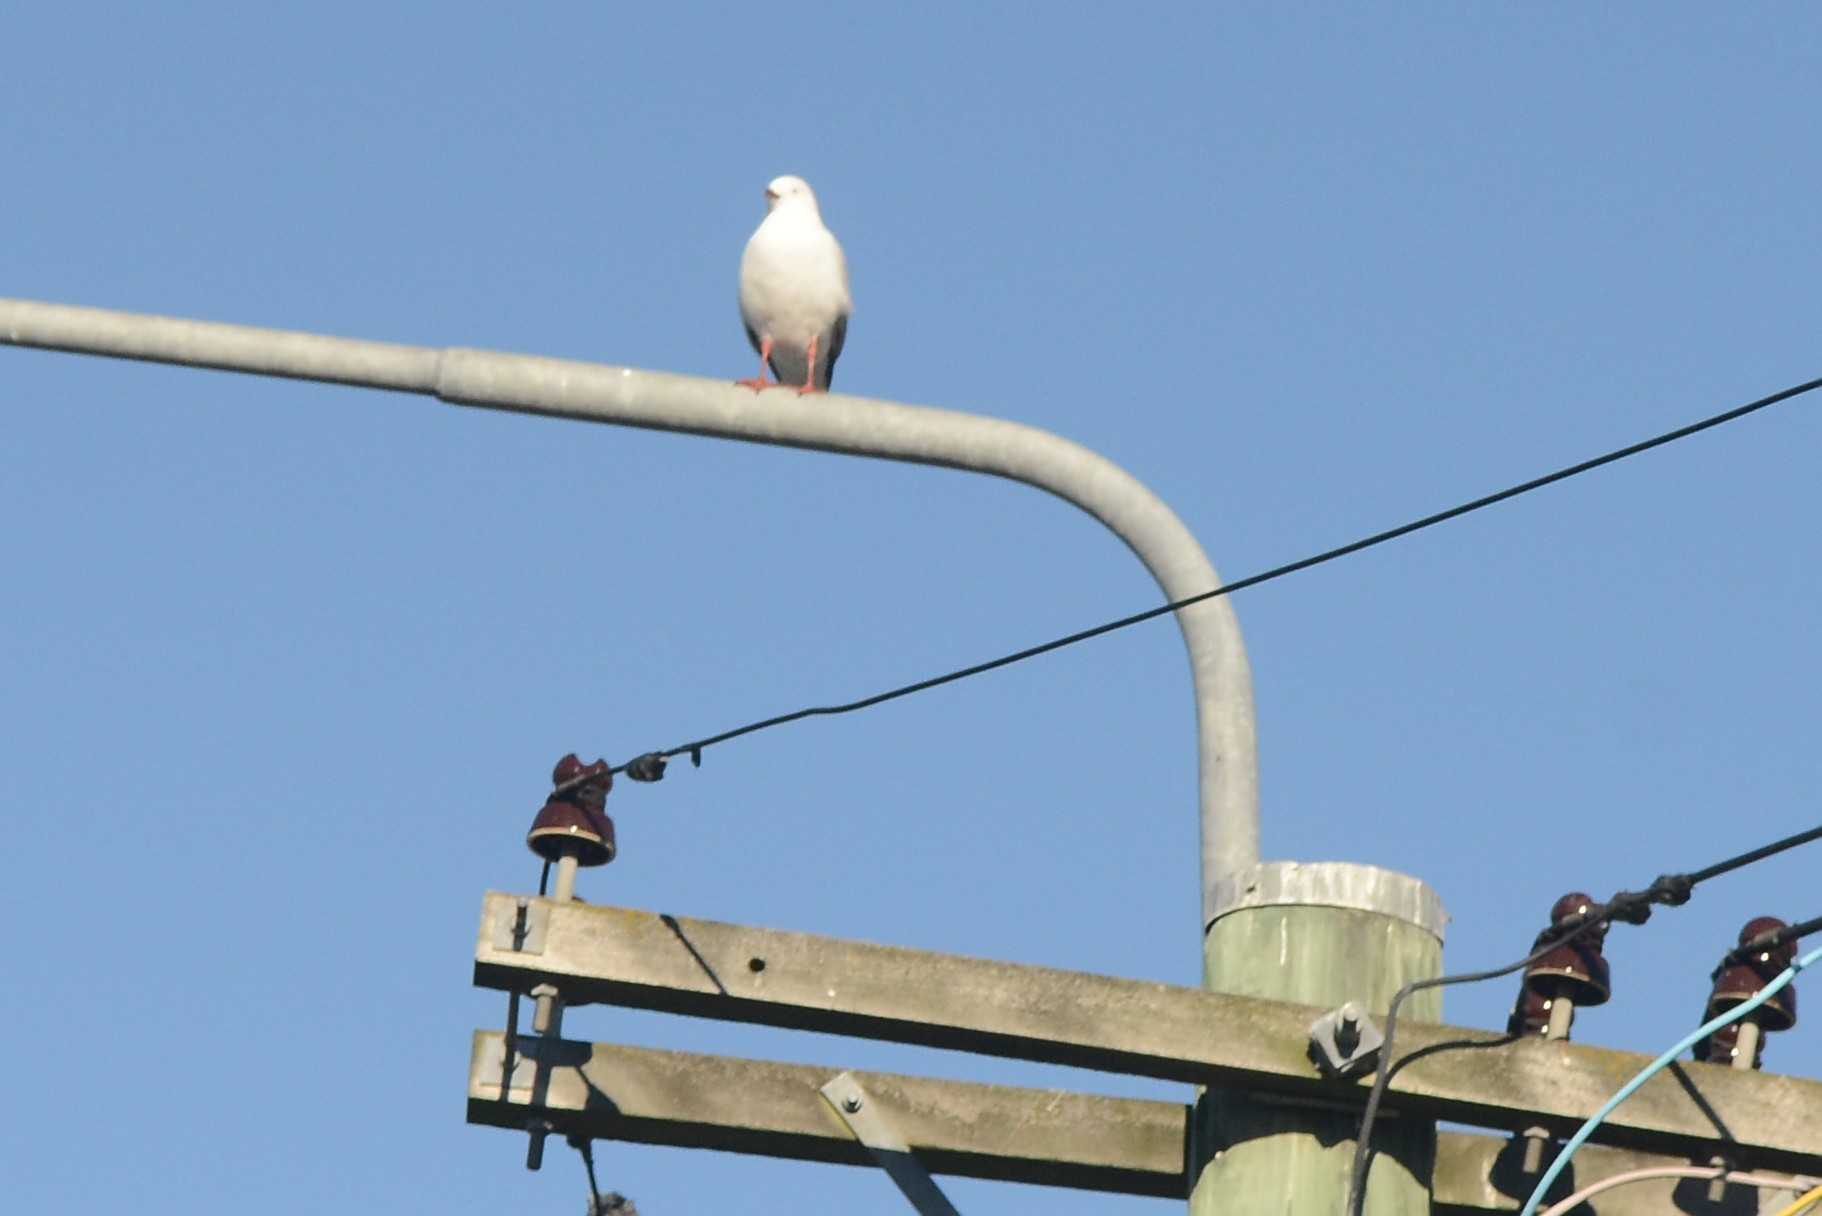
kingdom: Animalia
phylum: Chordata
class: Aves
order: Charadriiformes
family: Laridae
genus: Chroicocephalus
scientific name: Chroicocephalus novaehollandiae
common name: Silver gull
